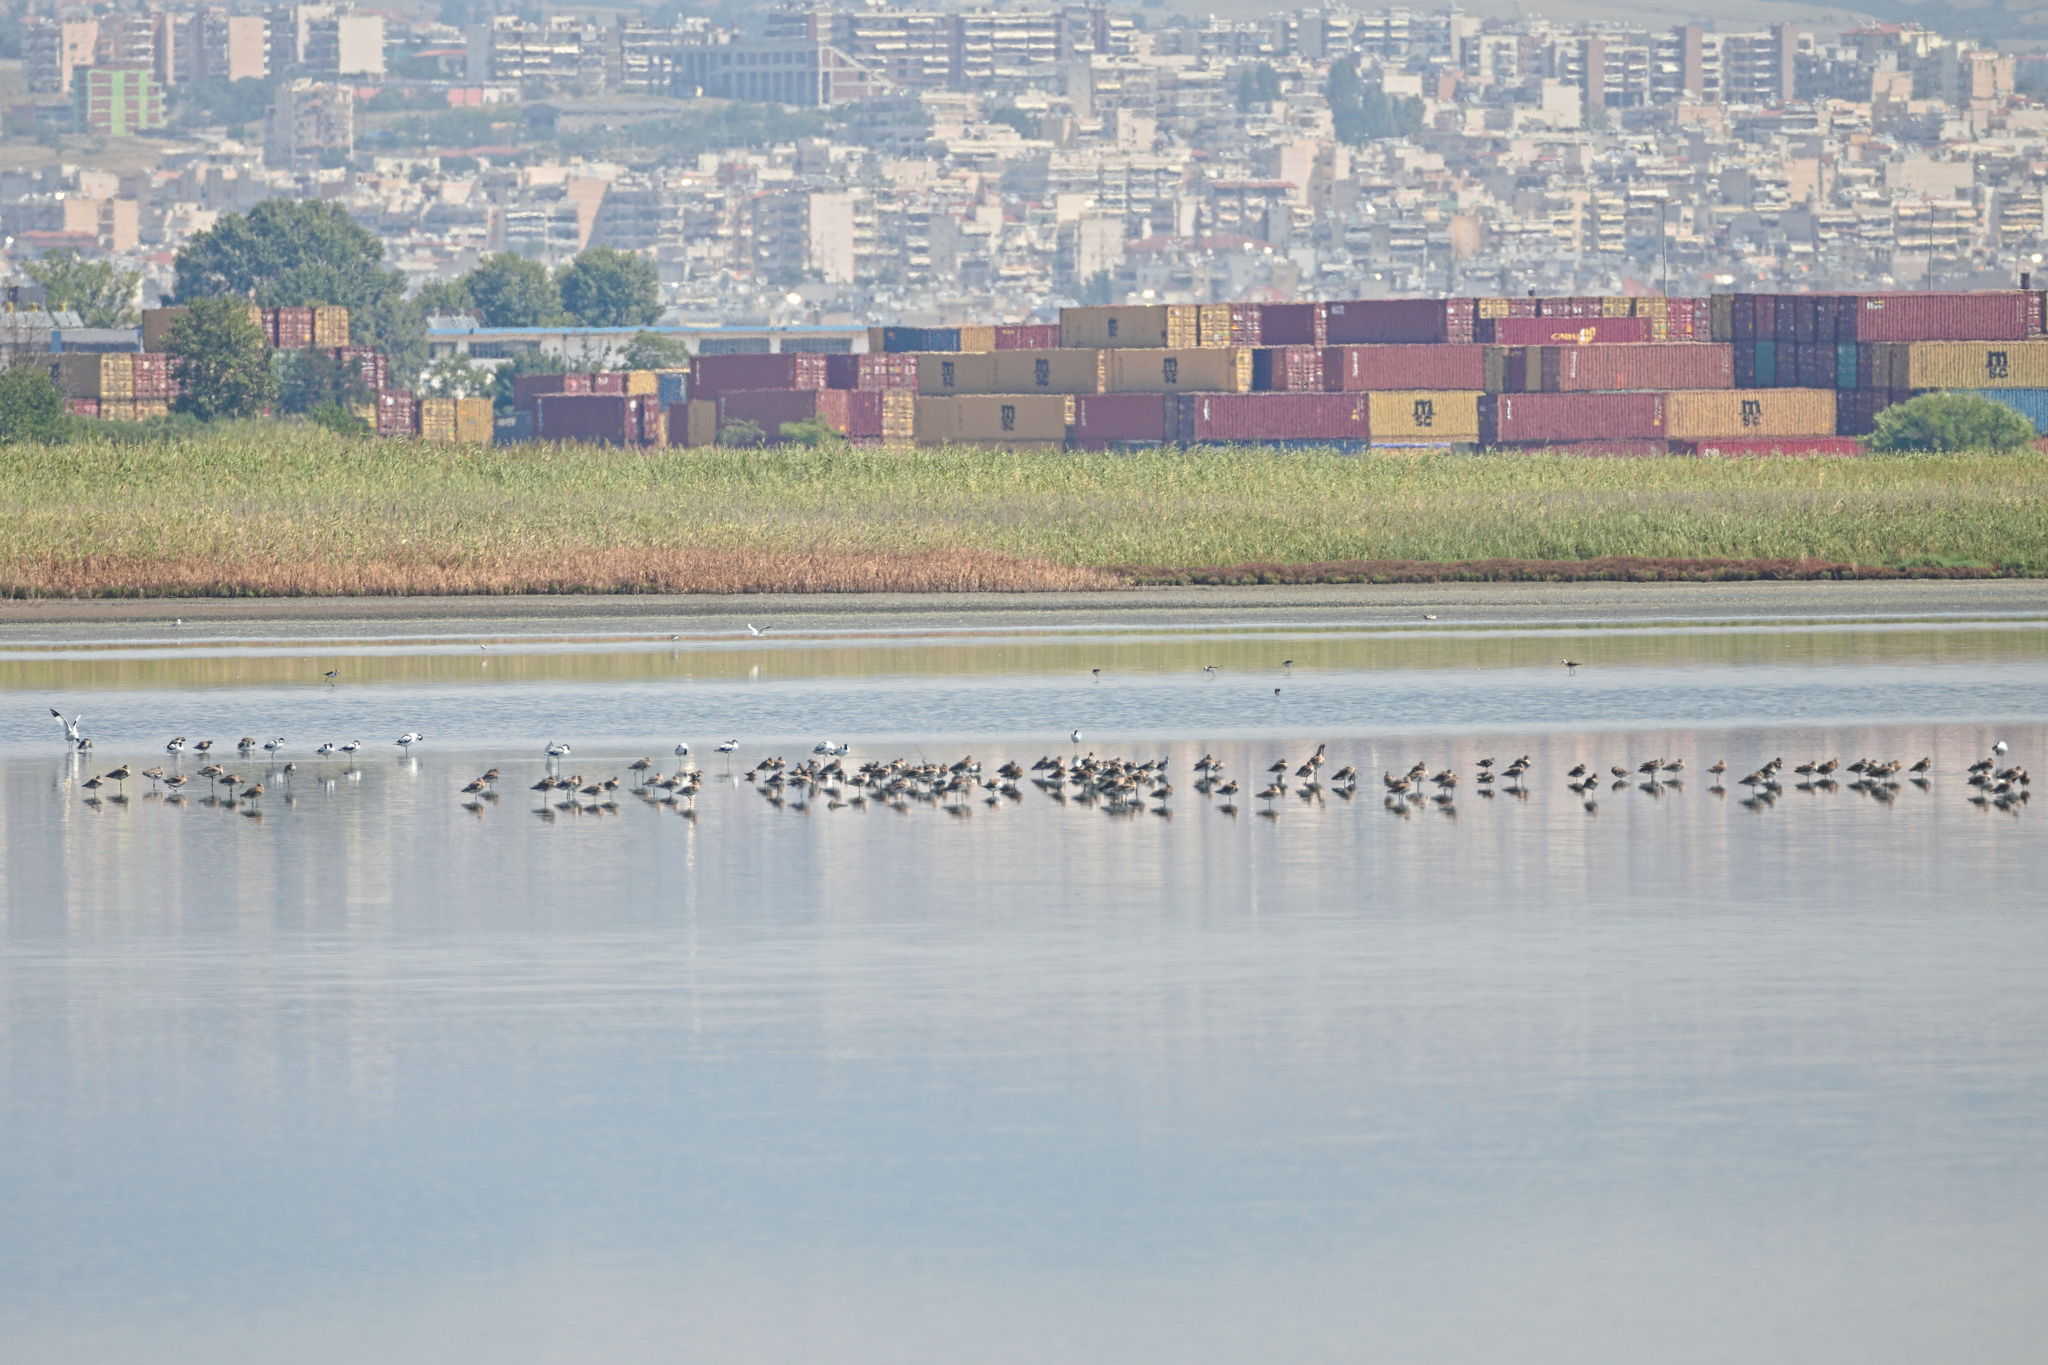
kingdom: Animalia
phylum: Chordata
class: Aves
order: Charadriiformes
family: Scolopacidae
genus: Limosa
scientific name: Limosa limosa
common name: Black-tailed godwit
